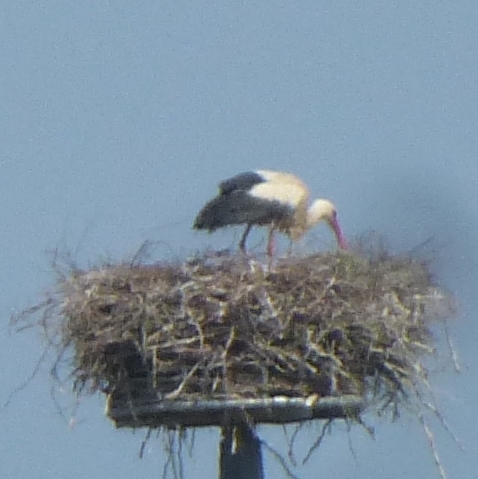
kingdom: Animalia
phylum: Chordata
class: Aves
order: Ciconiiformes
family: Ciconiidae
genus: Ciconia
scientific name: Ciconia ciconia
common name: White stork
